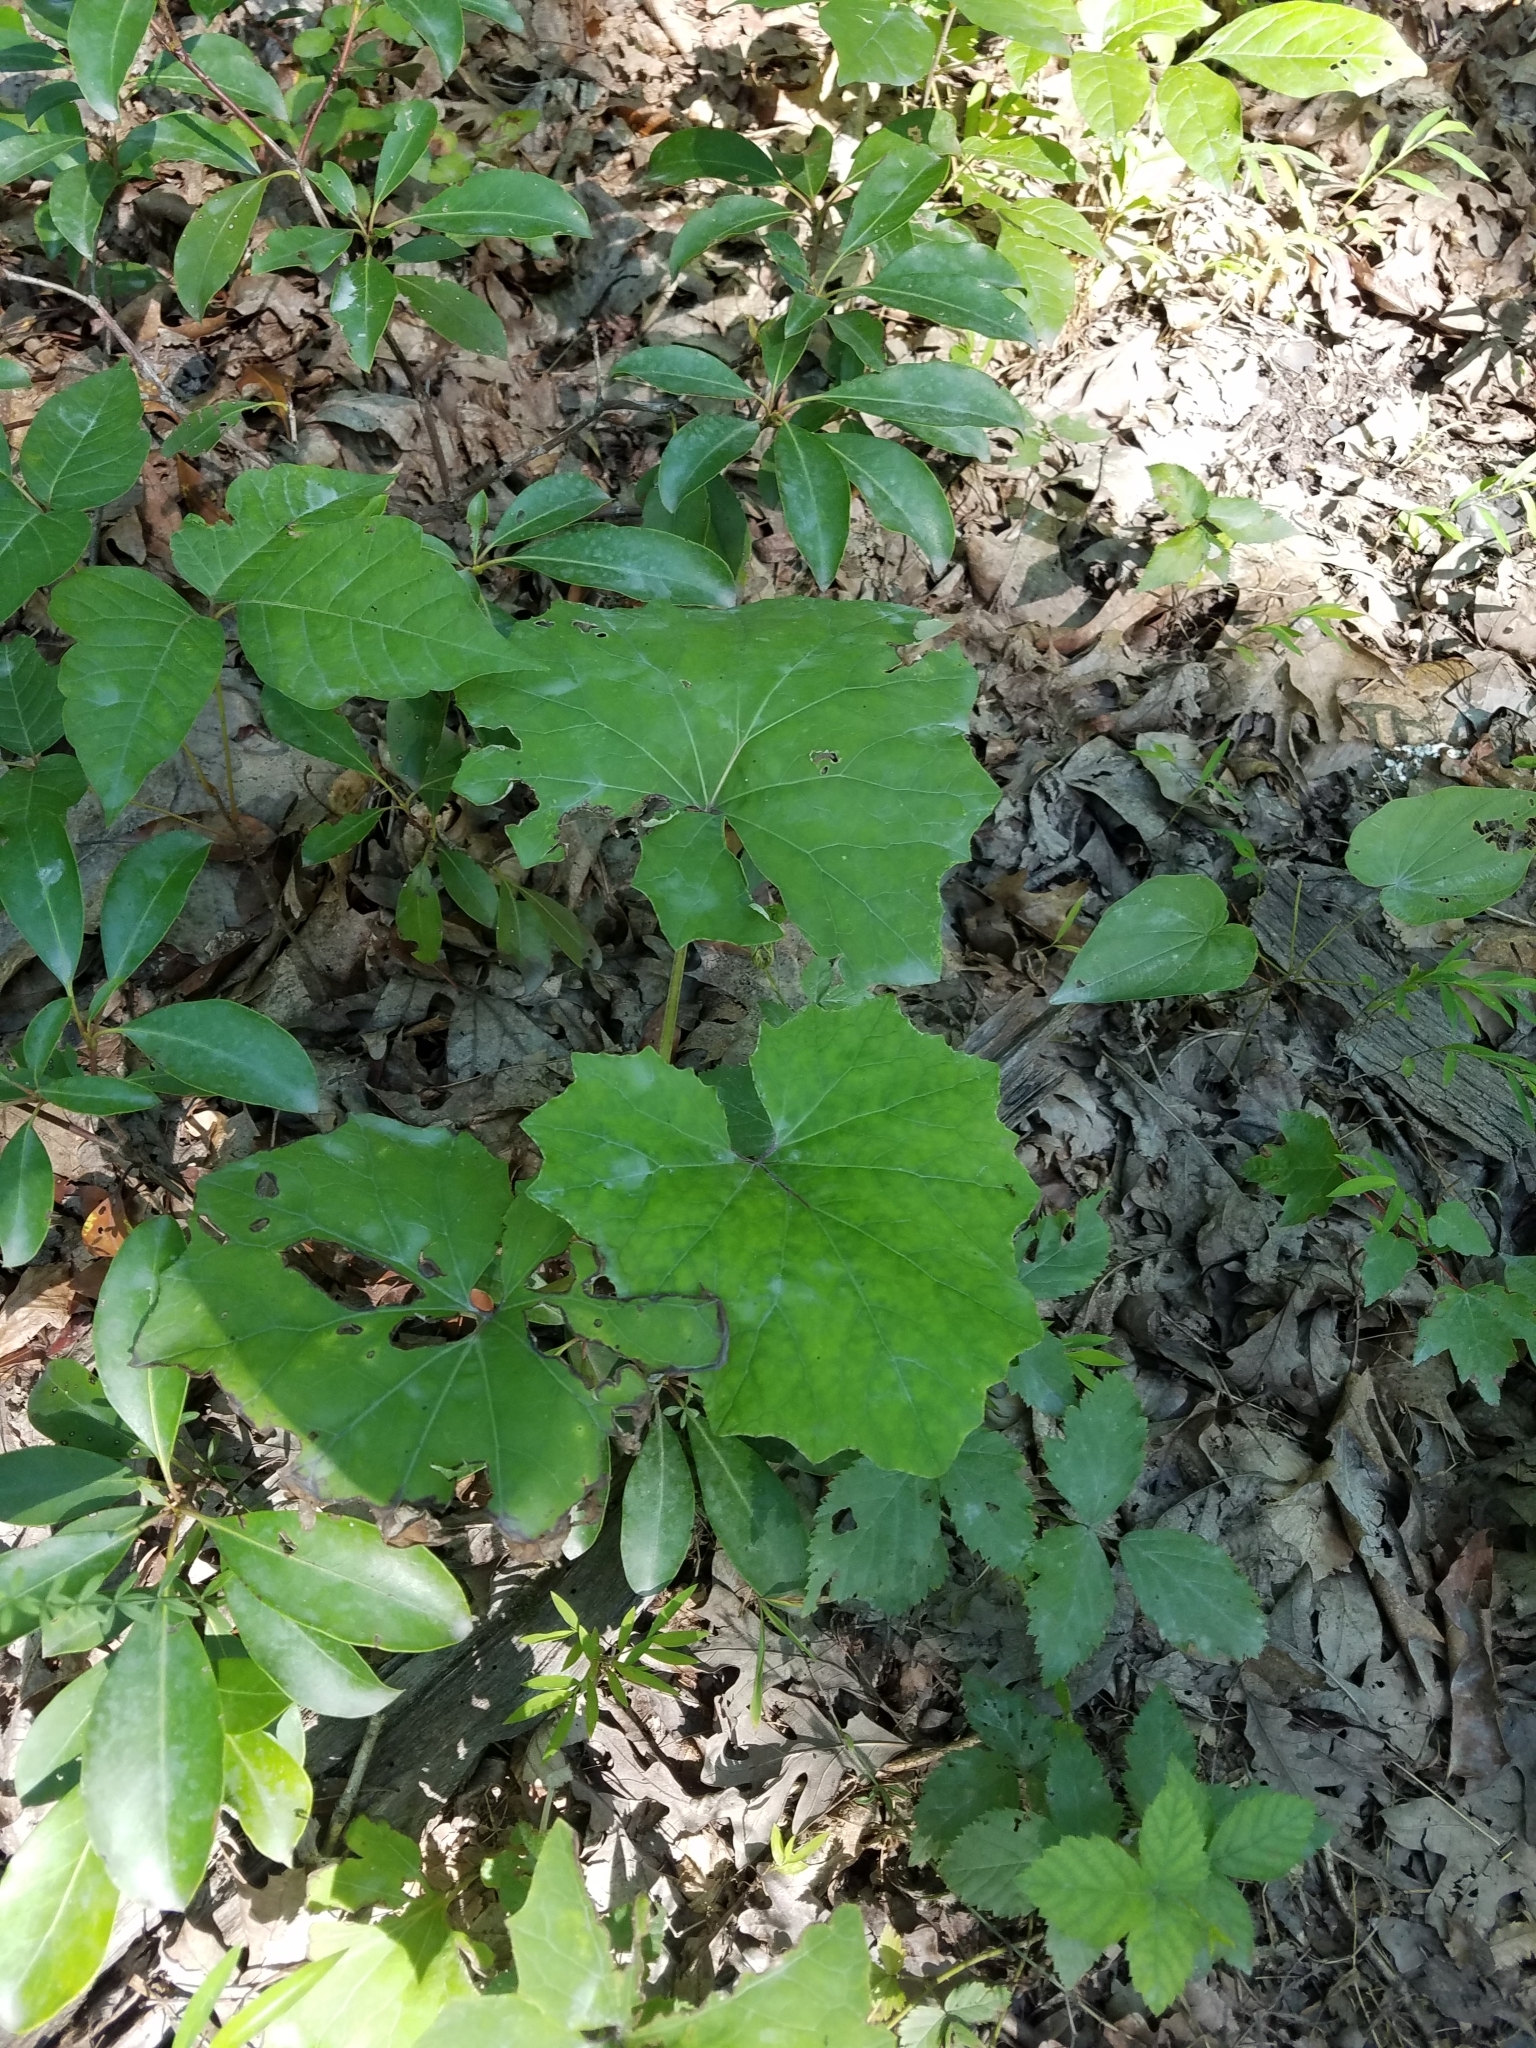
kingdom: Plantae
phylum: Tracheophyta
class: Magnoliopsida
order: Asterales
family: Asteraceae
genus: Tussilago
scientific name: Tussilago farfara
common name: Coltsfoot
